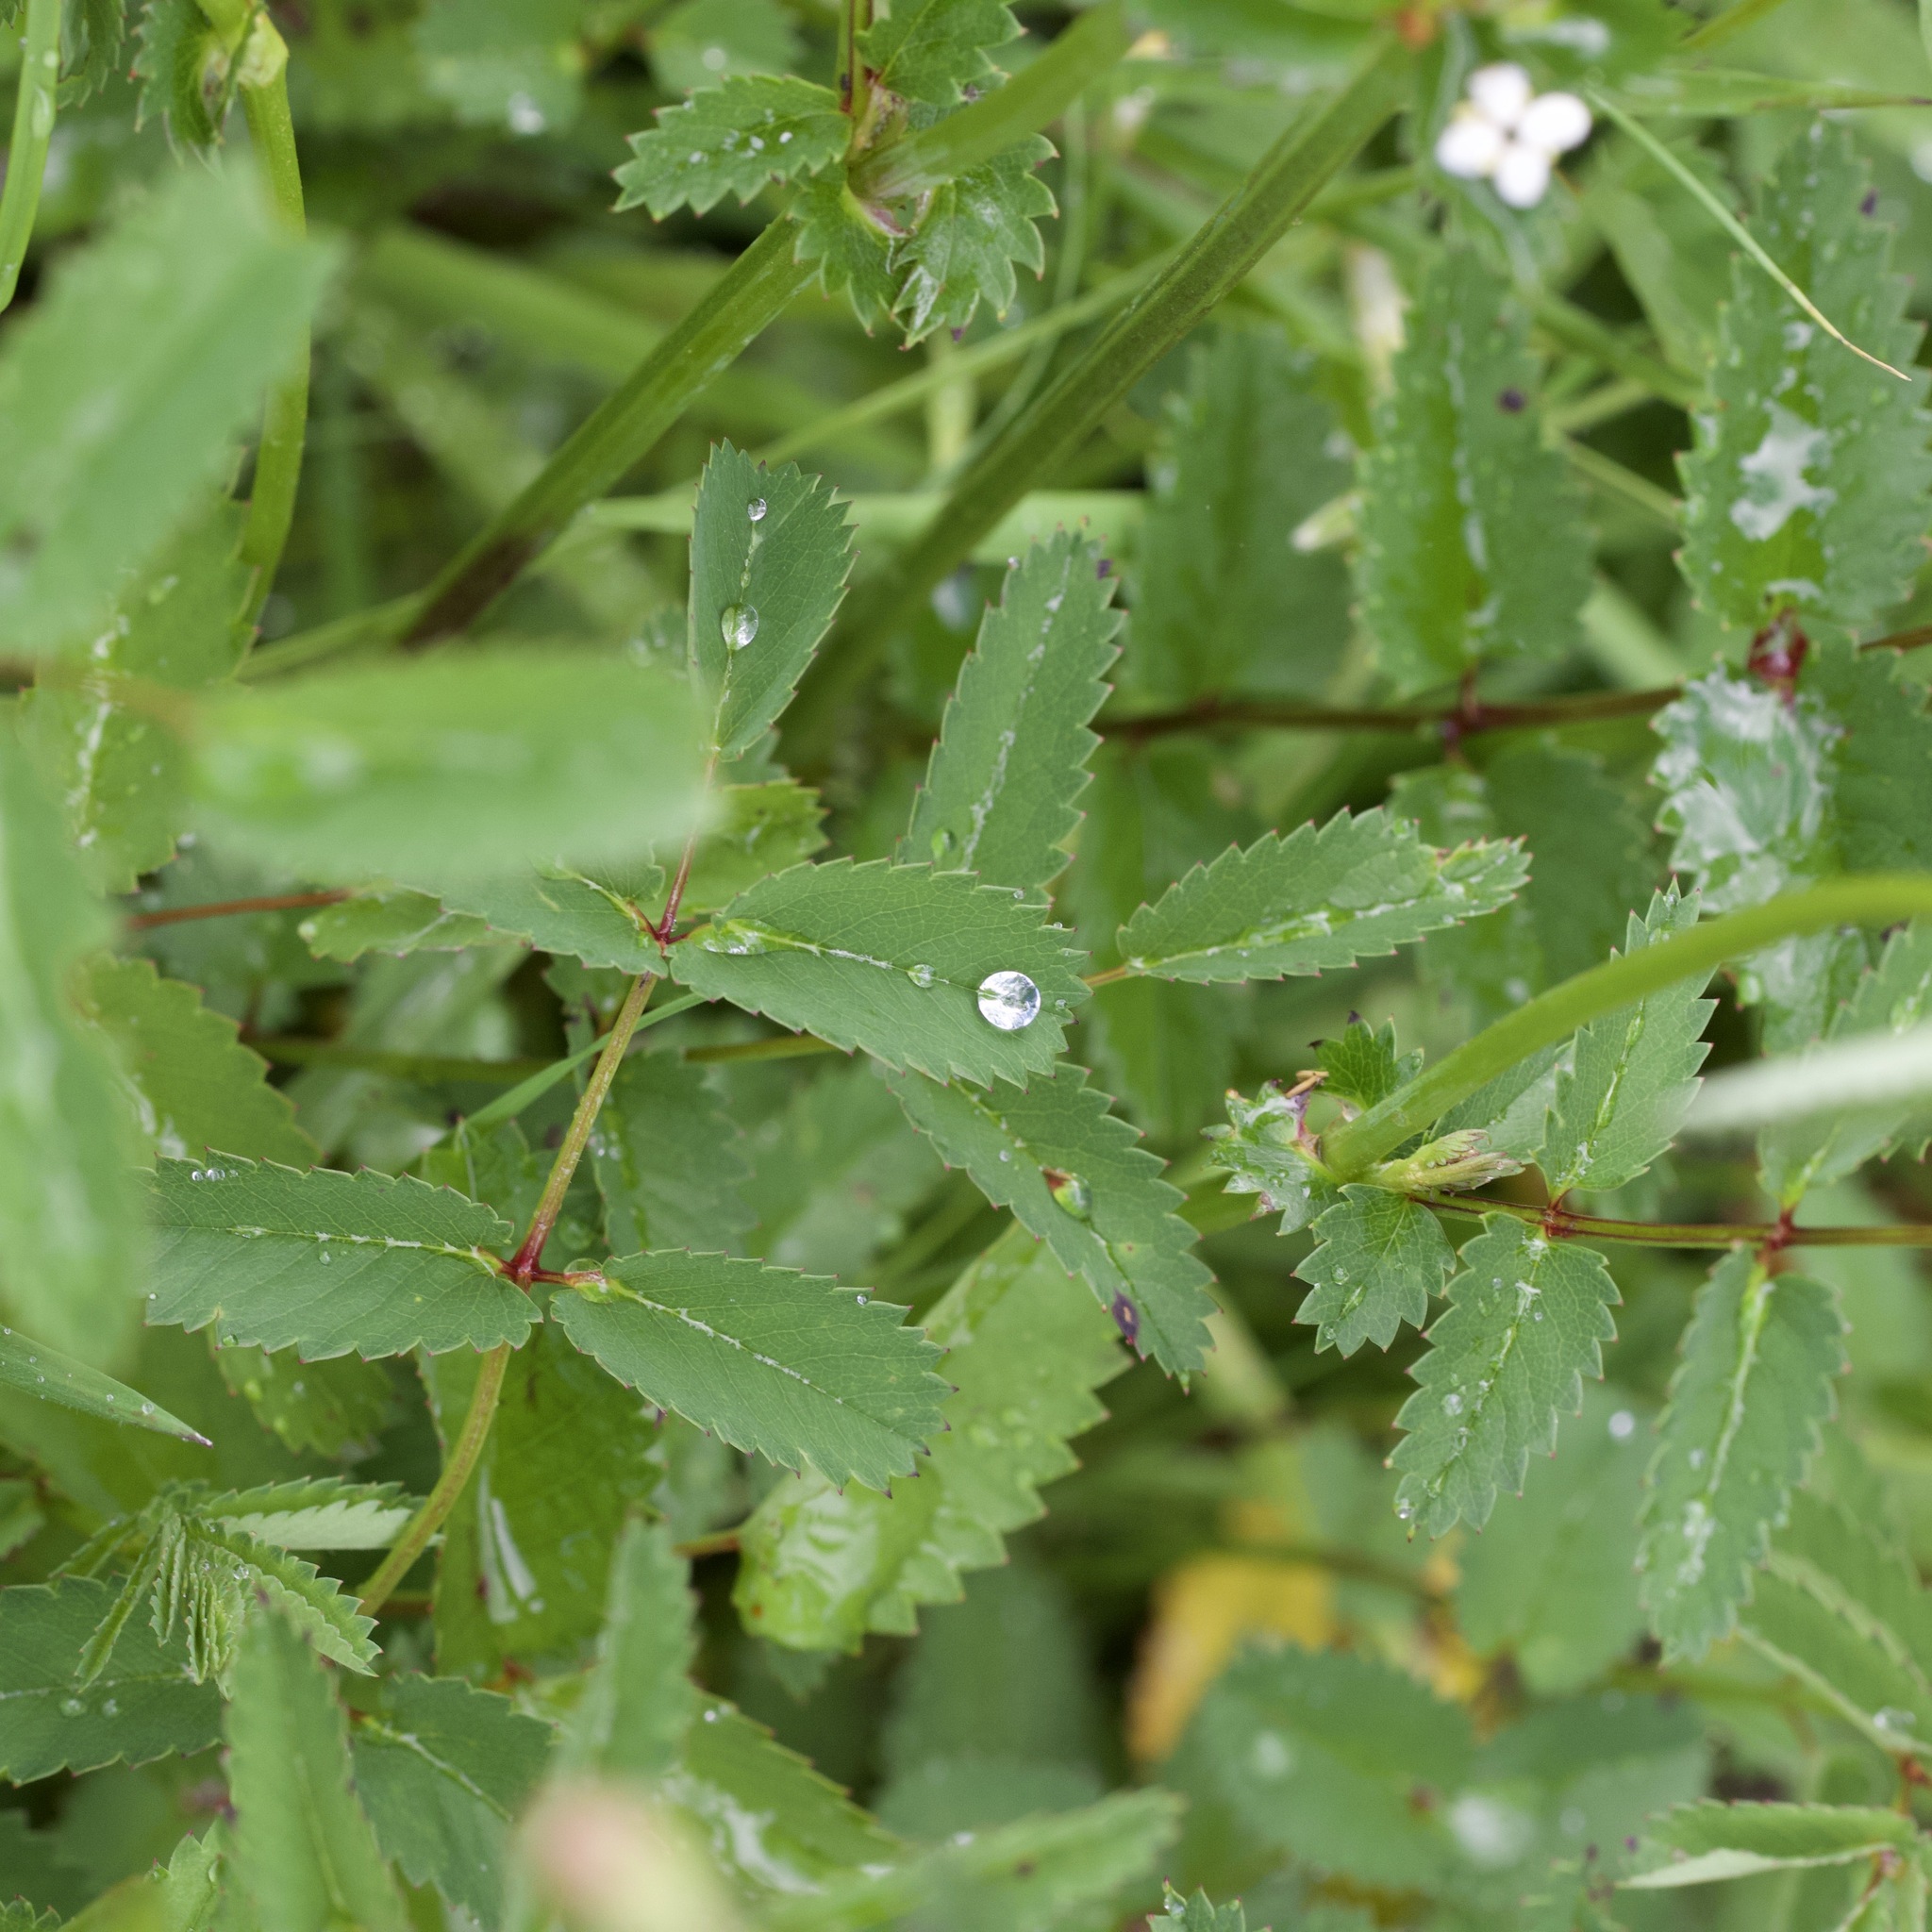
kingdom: Plantae
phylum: Tracheophyta
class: Magnoliopsida
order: Rosales
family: Rosaceae
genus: Sanguisorba
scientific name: Sanguisorba officinalis
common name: Great burnet
